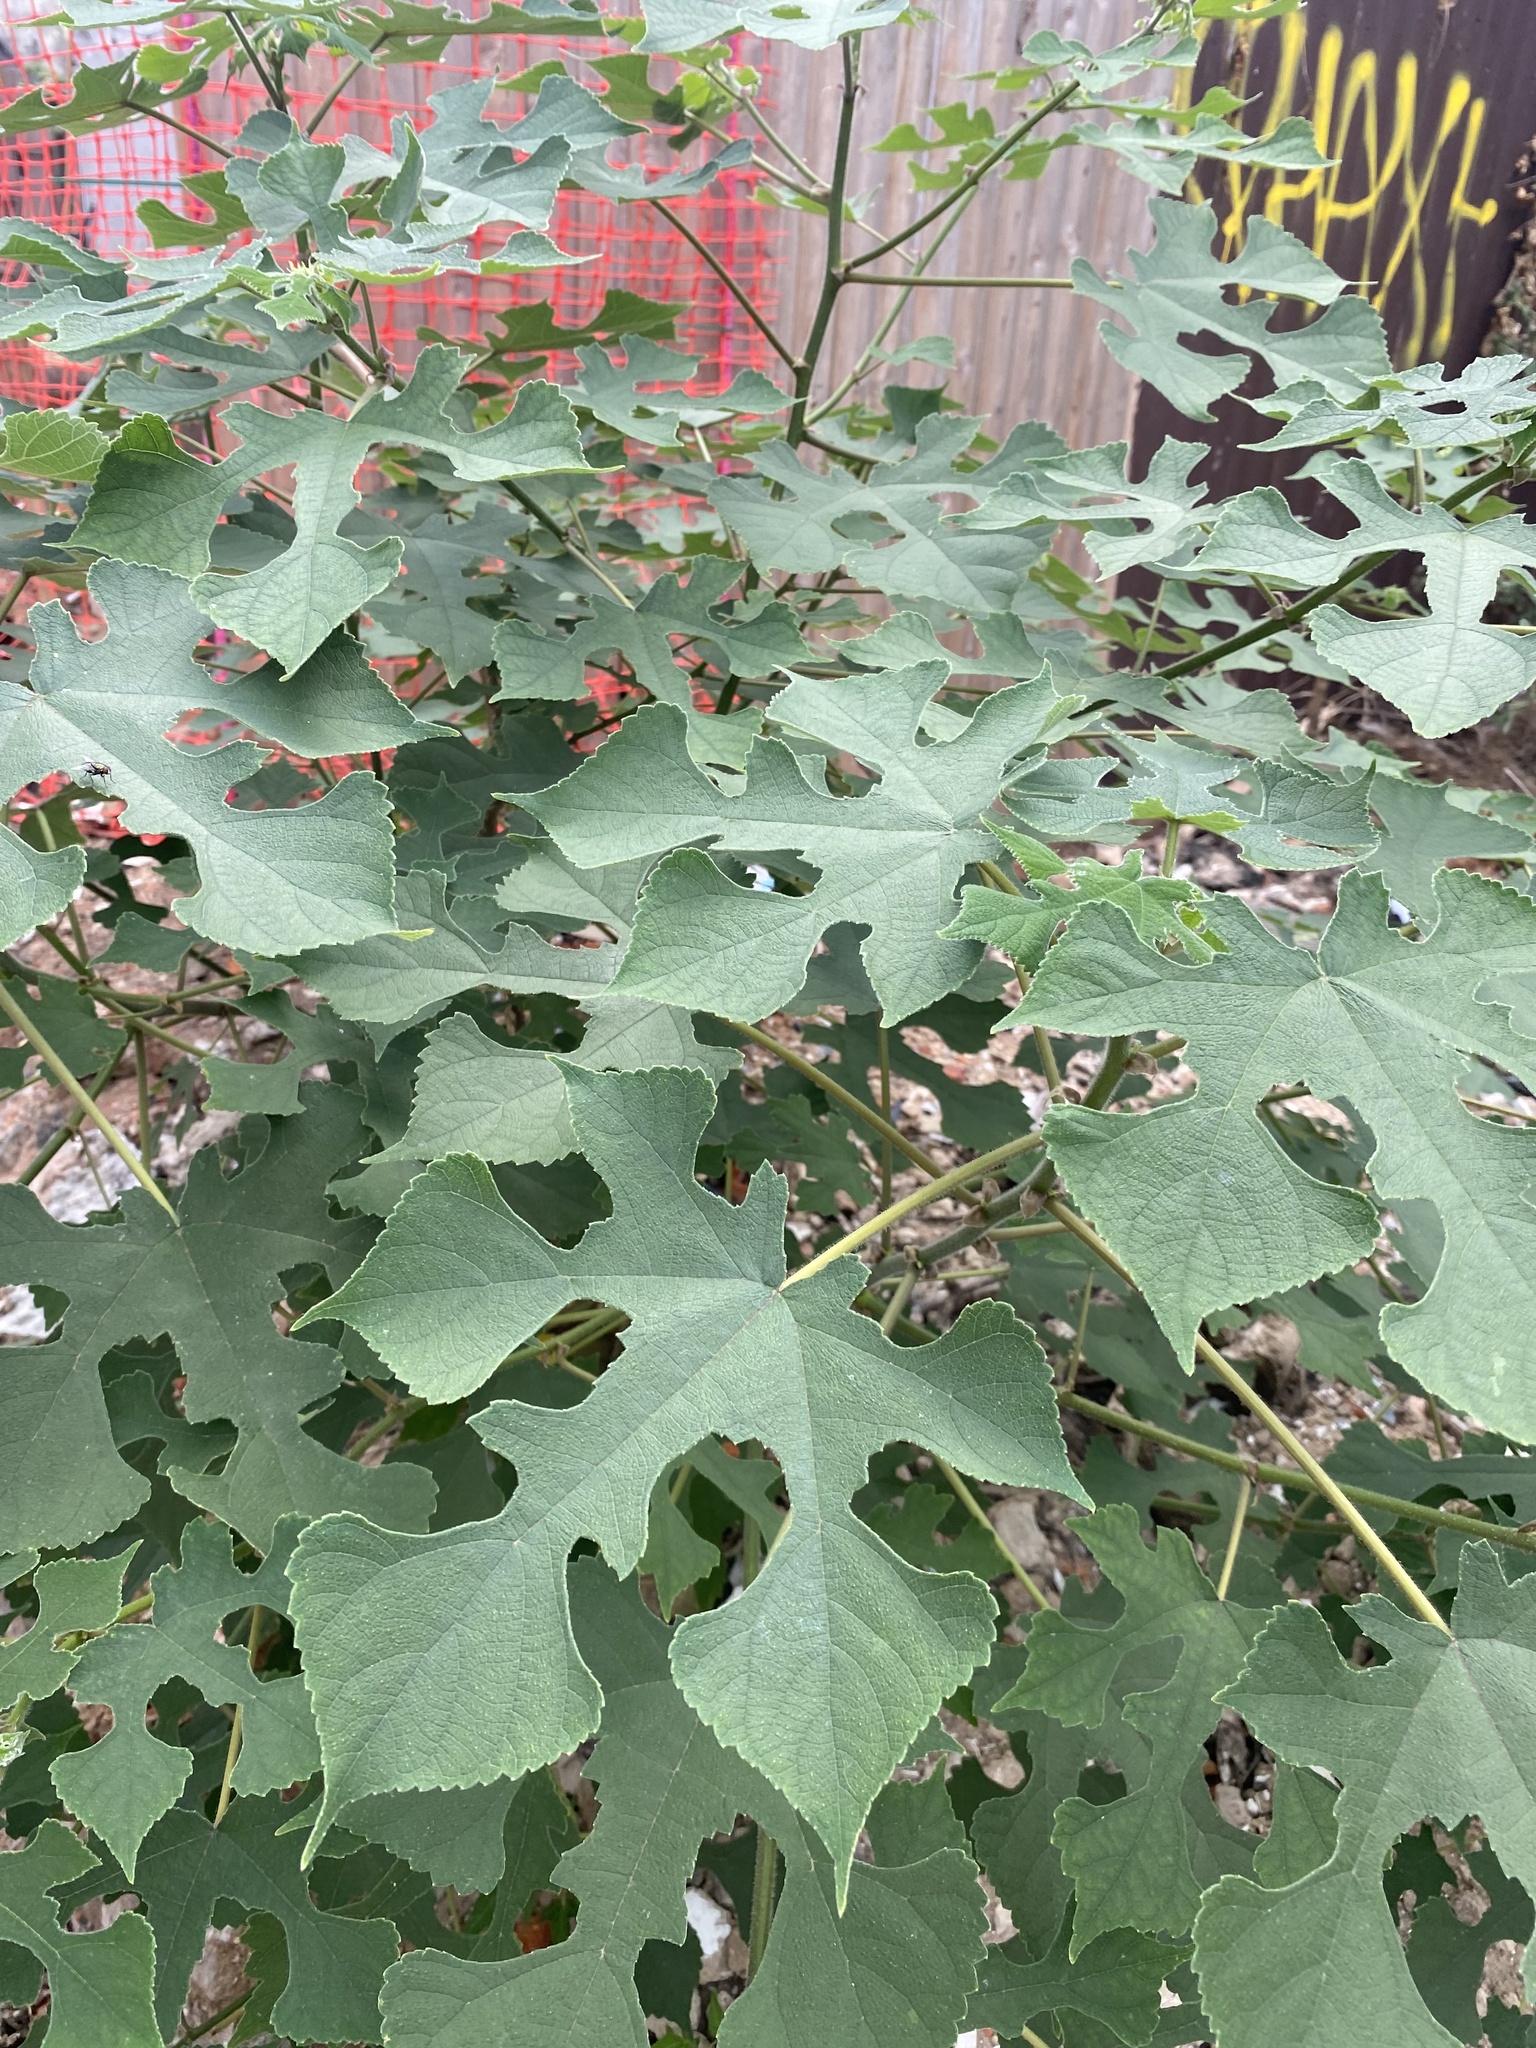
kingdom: Plantae
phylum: Tracheophyta
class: Magnoliopsida
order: Rosales
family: Moraceae
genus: Broussonetia
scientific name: Broussonetia papyrifera
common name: Paper mulberry
